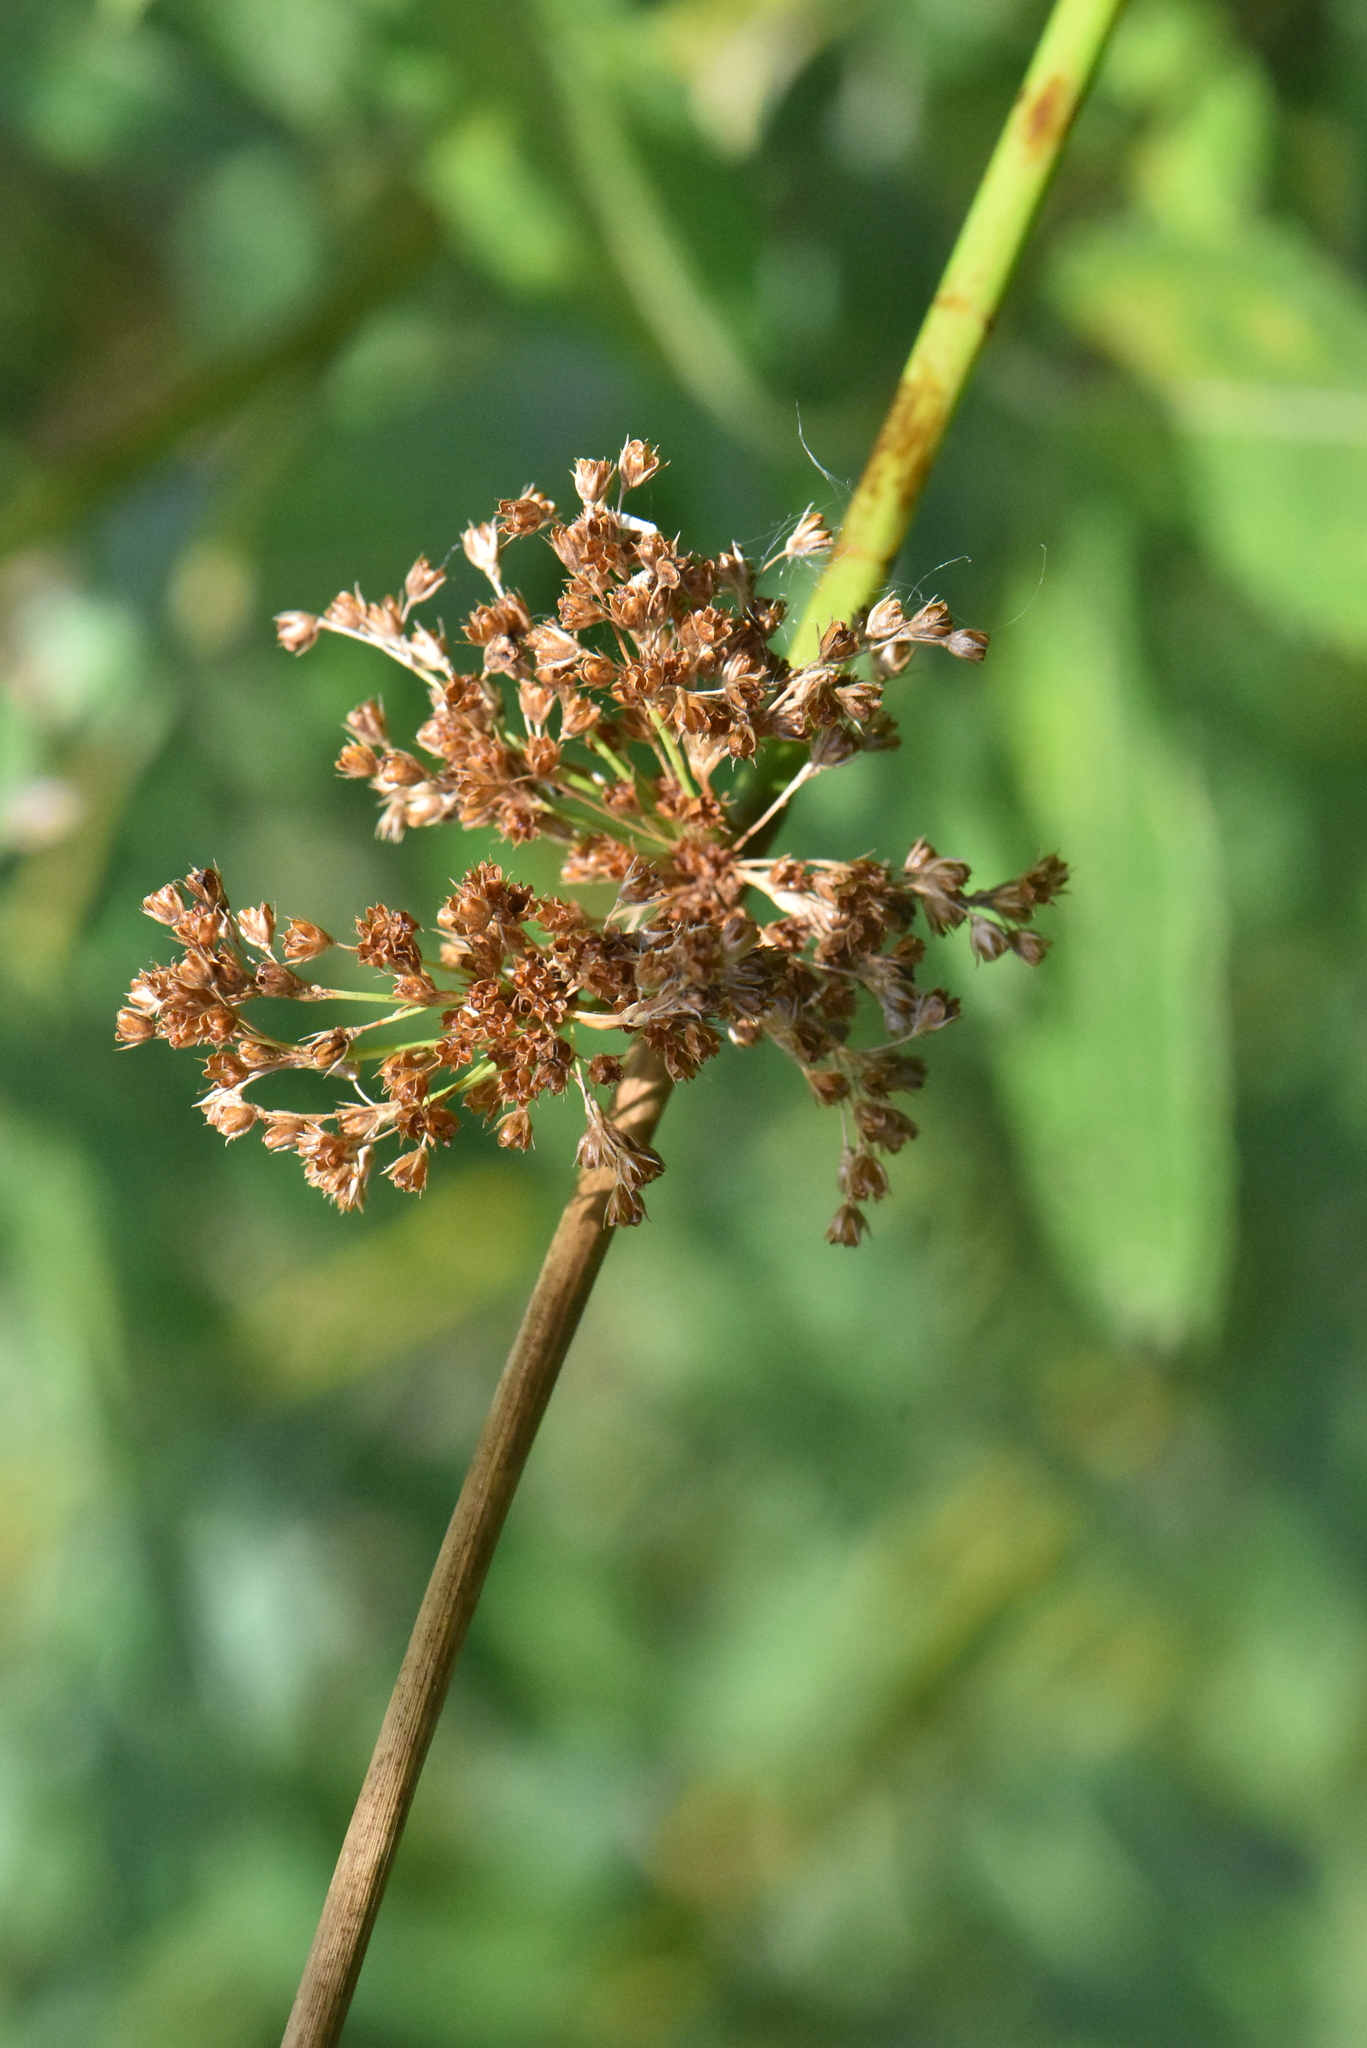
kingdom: Plantae
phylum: Tracheophyta
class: Liliopsida
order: Poales
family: Juncaceae
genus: Juncus
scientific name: Juncus effusus
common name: Soft rush
